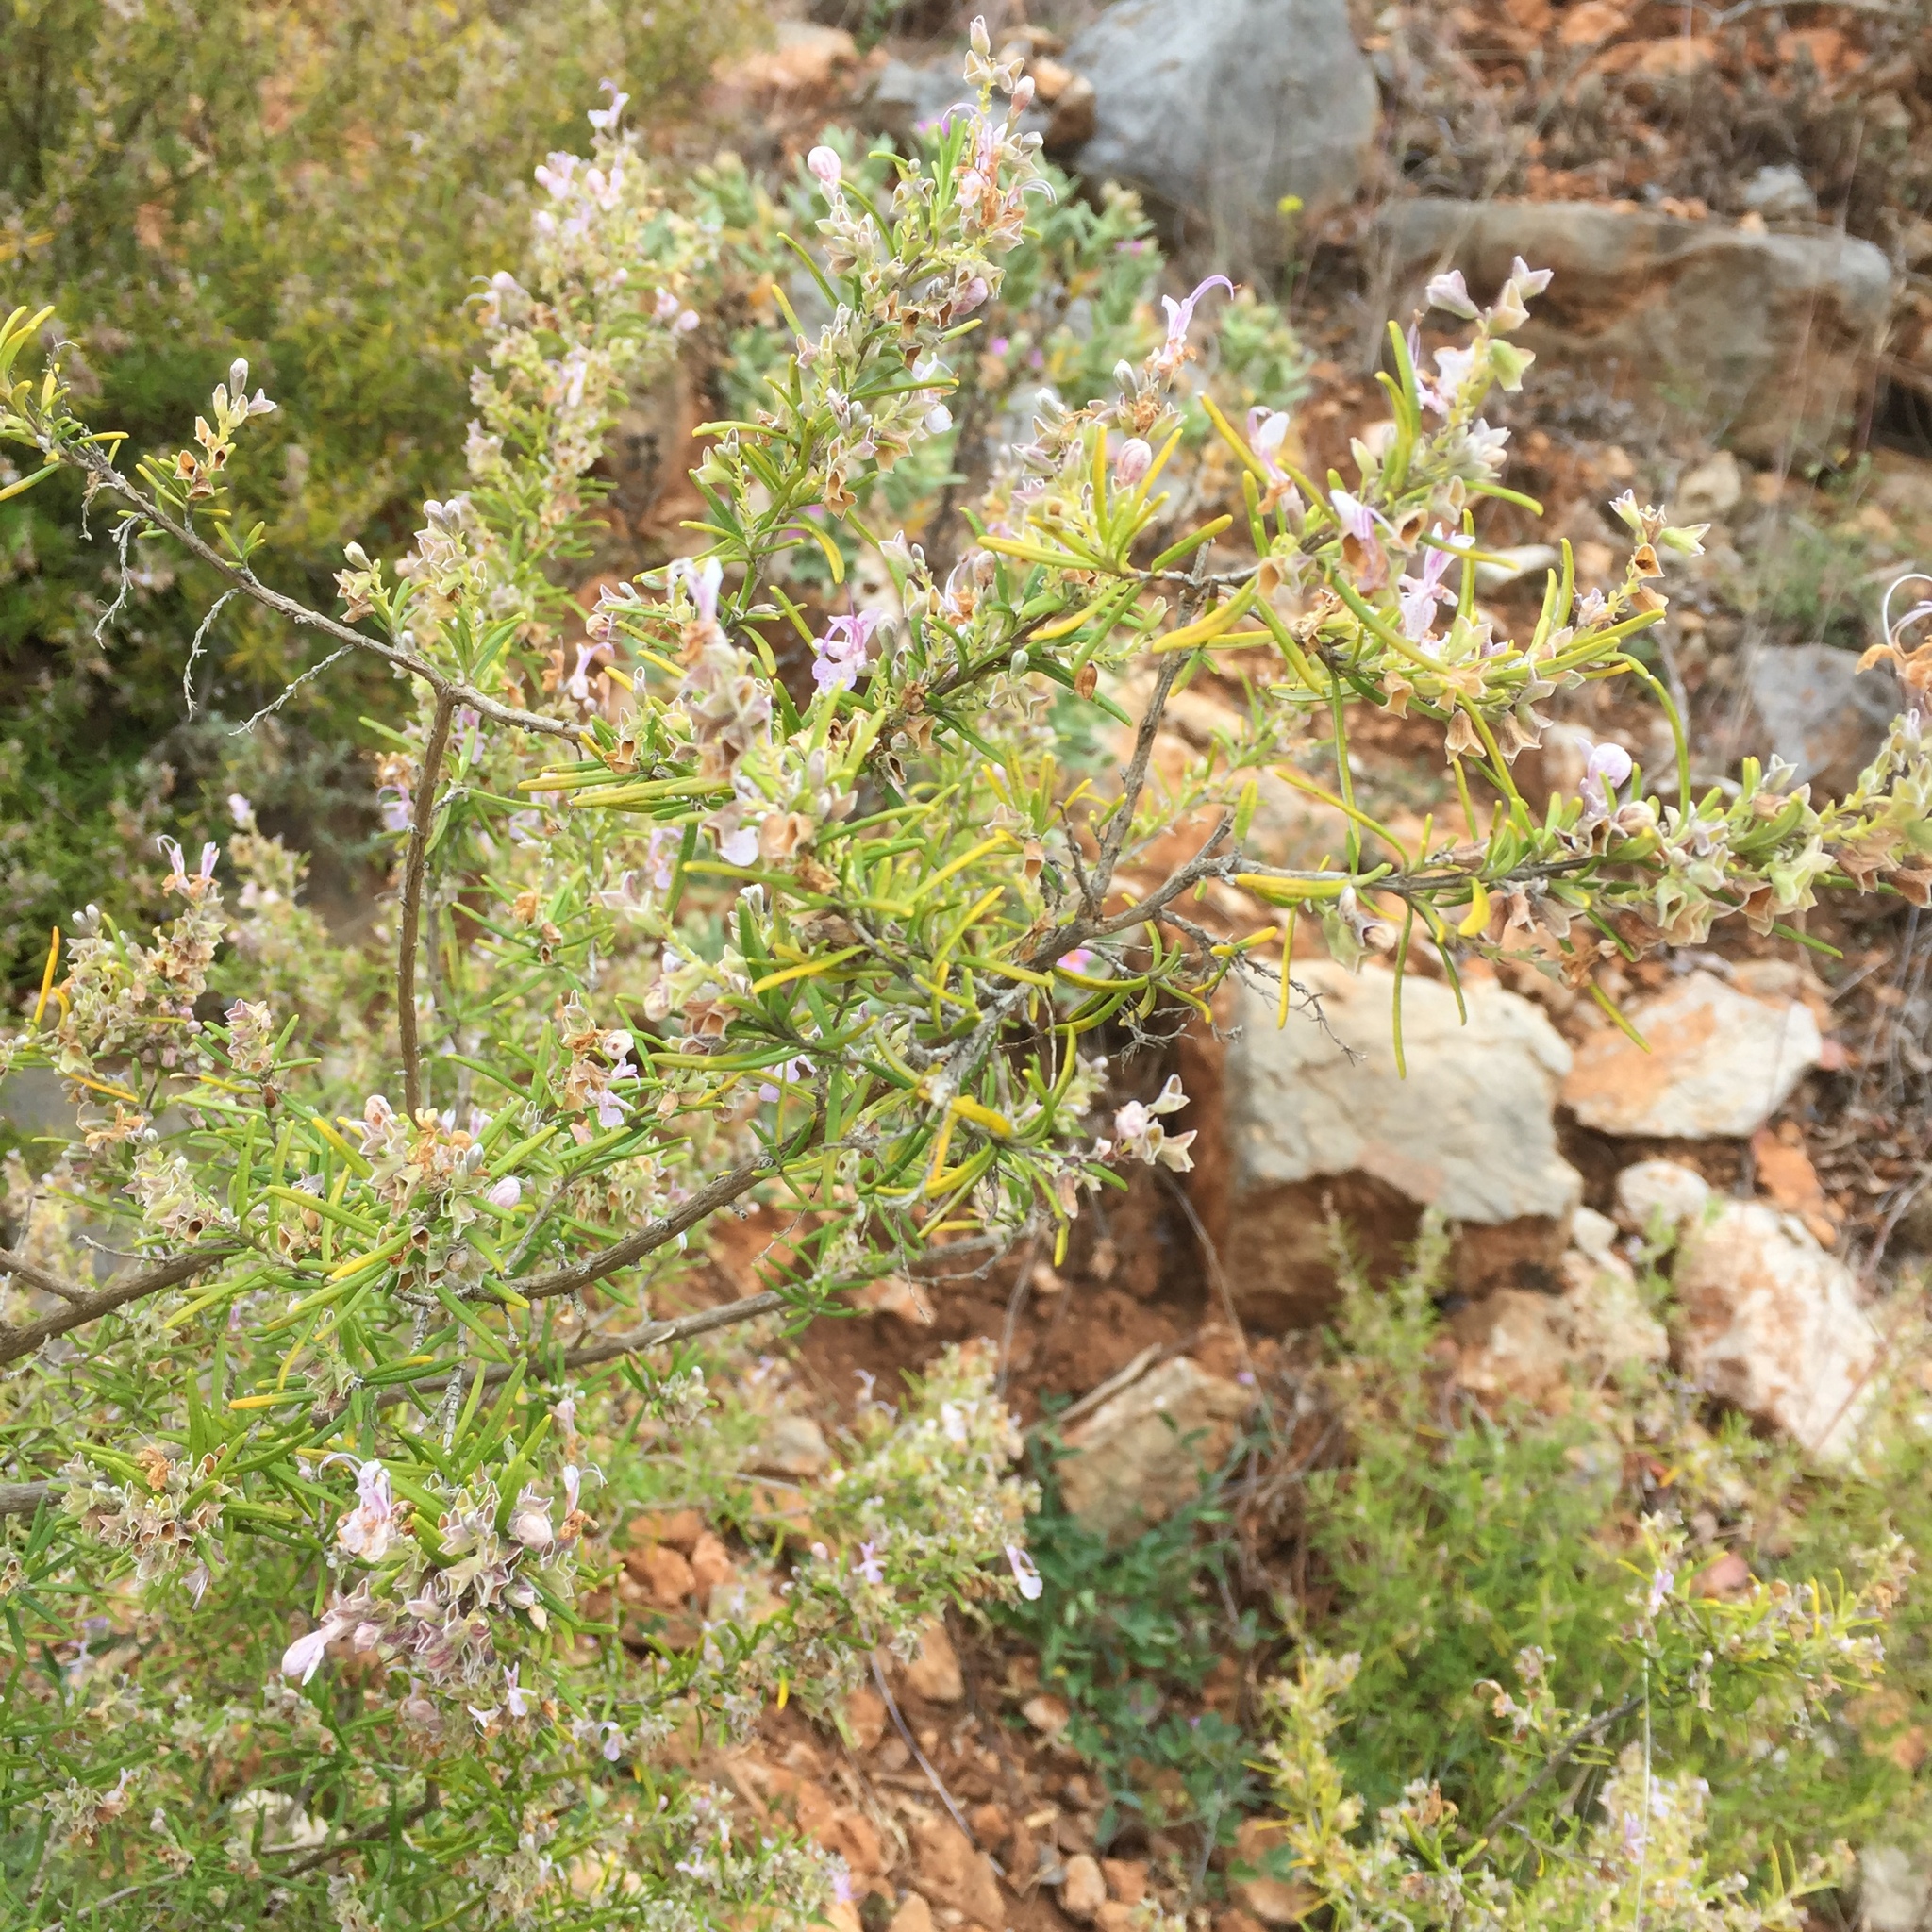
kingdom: Plantae
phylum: Tracheophyta
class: Magnoliopsida
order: Lamiales
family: Lamiaceae
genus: Salvia
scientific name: Salvia rosmarinus
